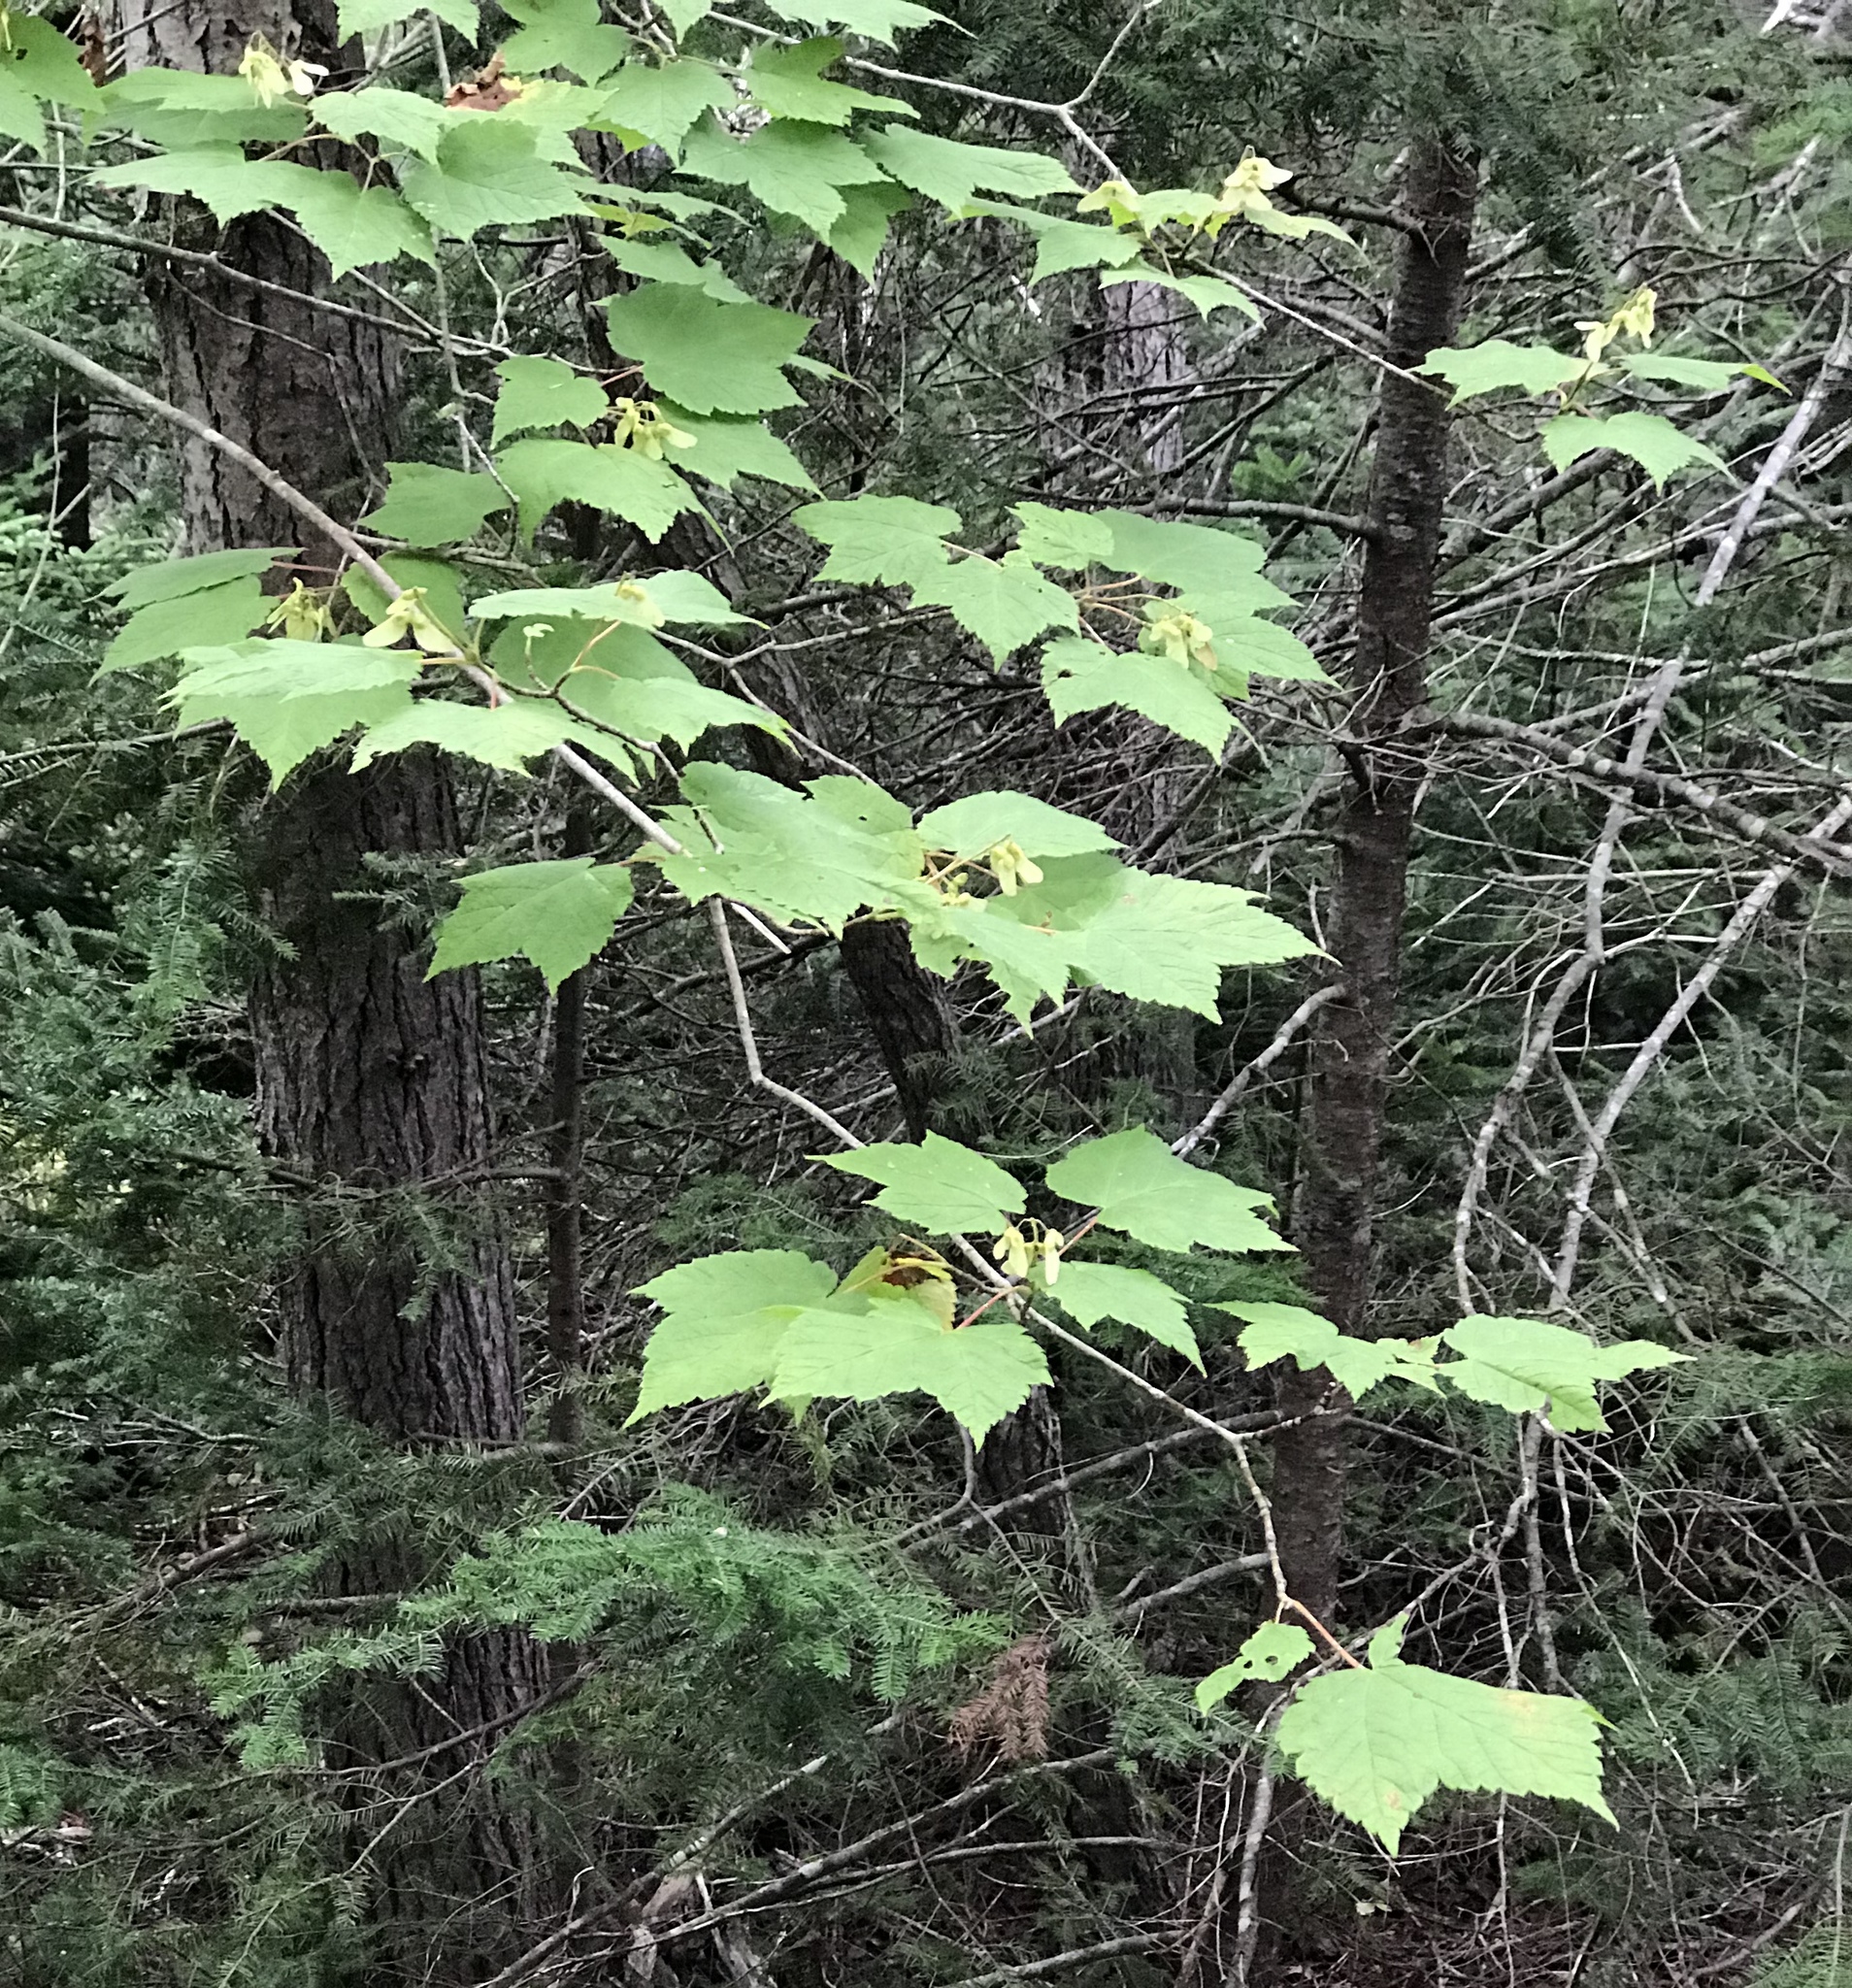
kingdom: Plantae
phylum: Tracheophyta
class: Magnoliopsida
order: Sapindales
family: Sapindaceae
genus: Acer
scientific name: Acer spicatum
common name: Mountain maple
